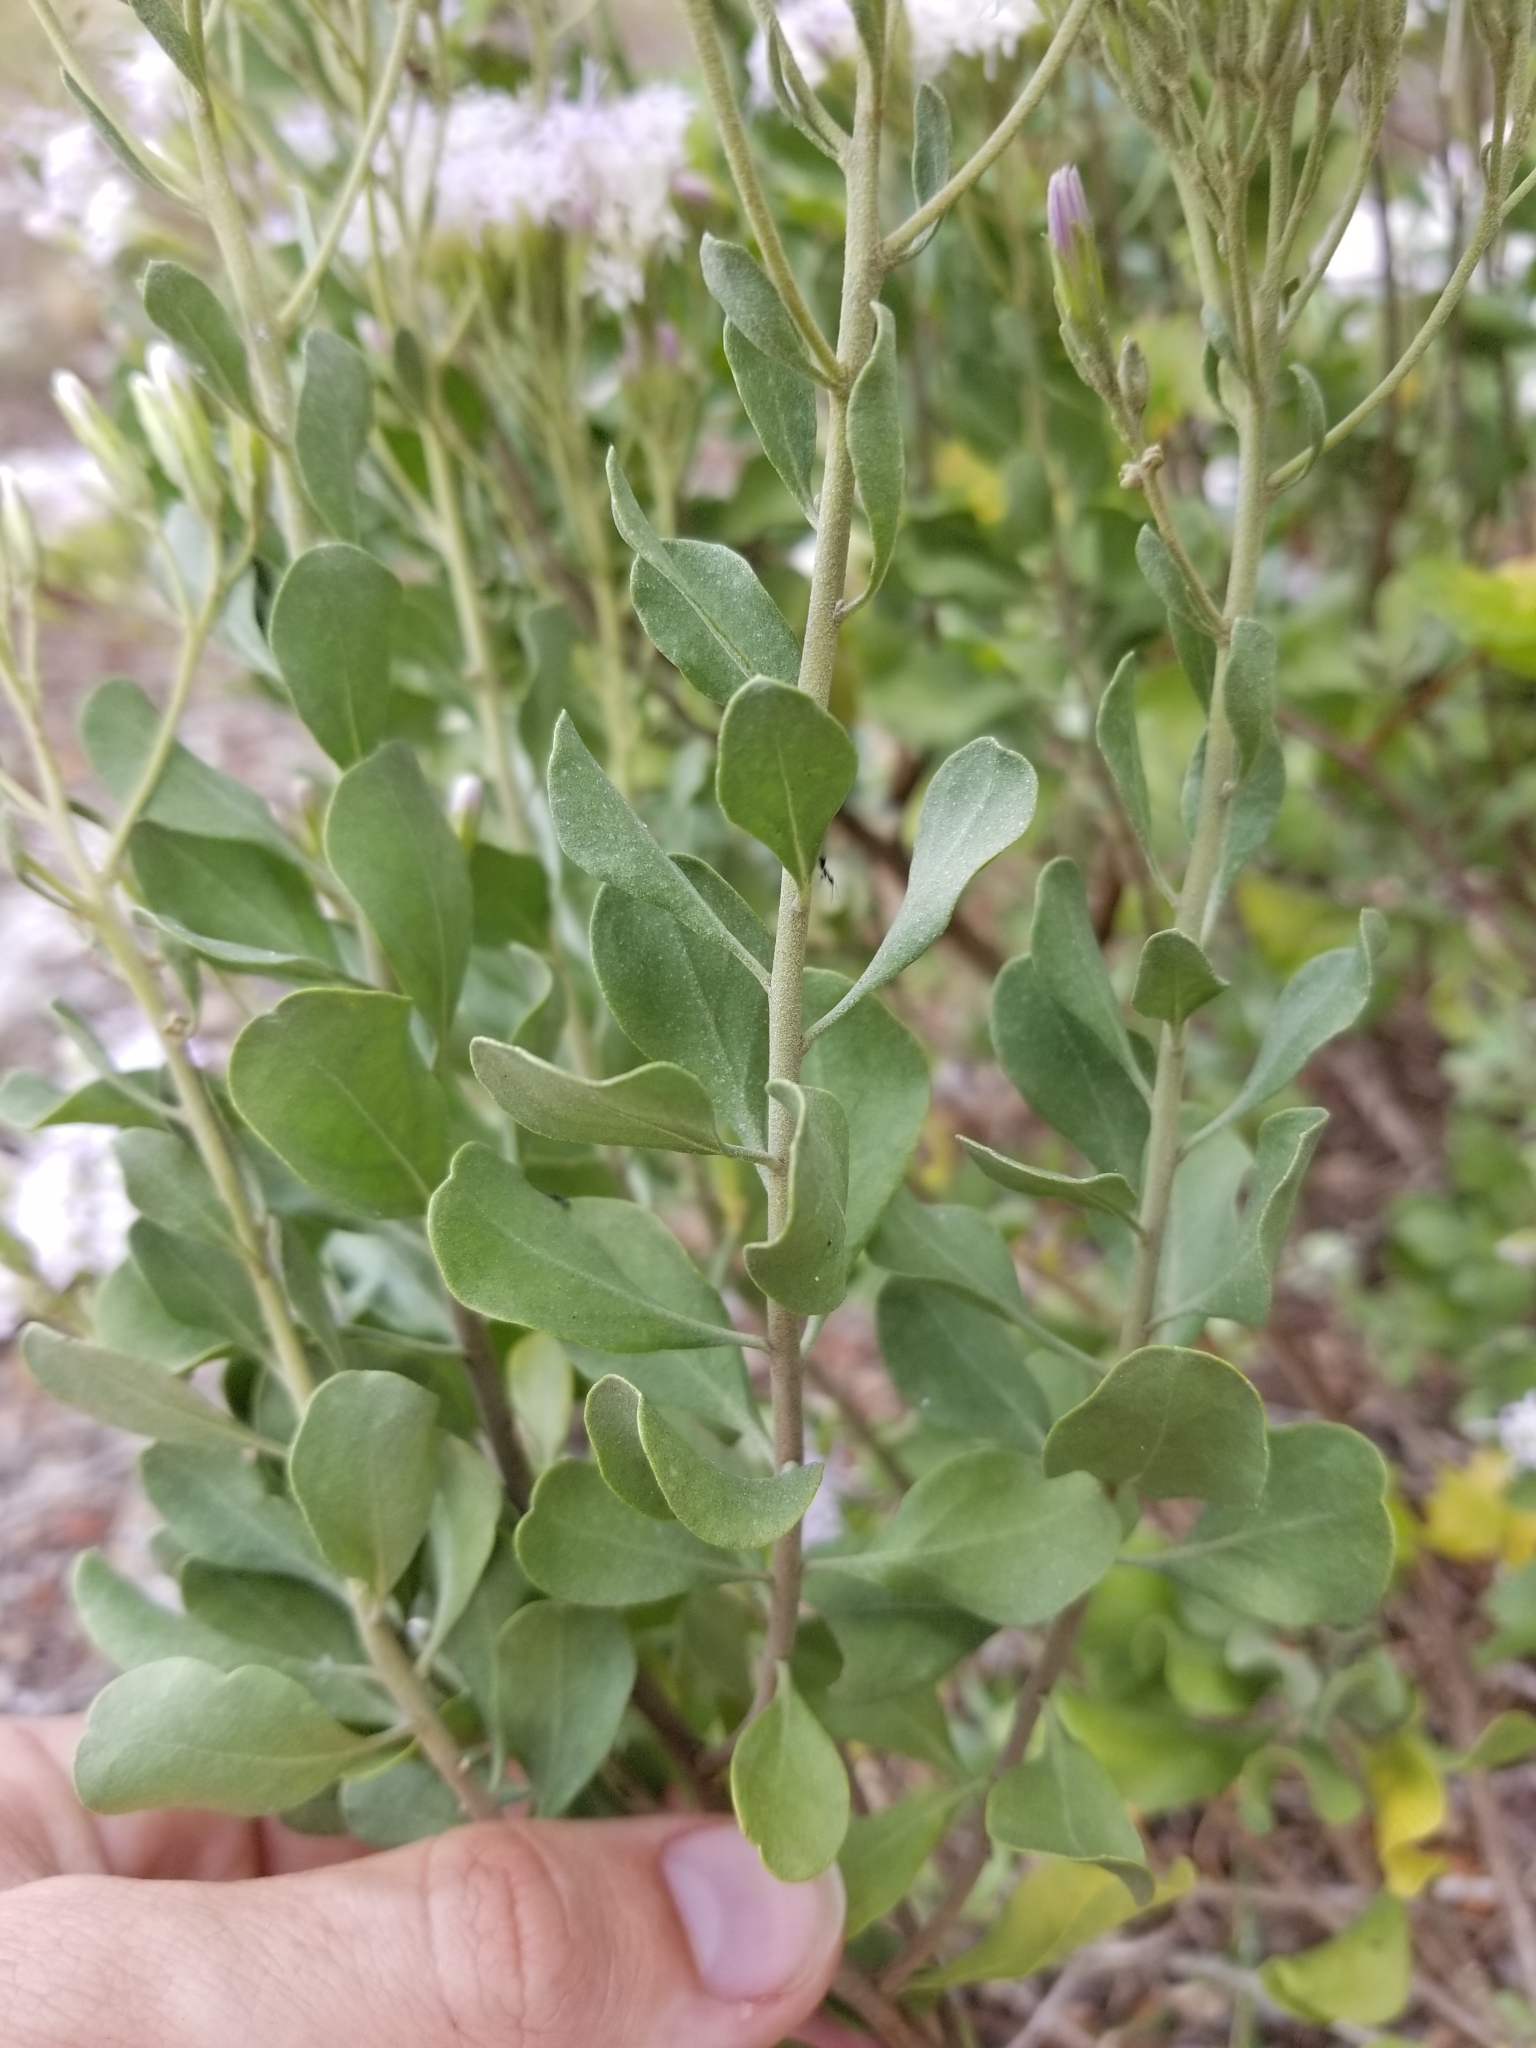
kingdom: Plantae
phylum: Tracheophyta
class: Magnoliopsida
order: Asterales
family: Asteraceae
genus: Garberia
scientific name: Garberia heterophylla
